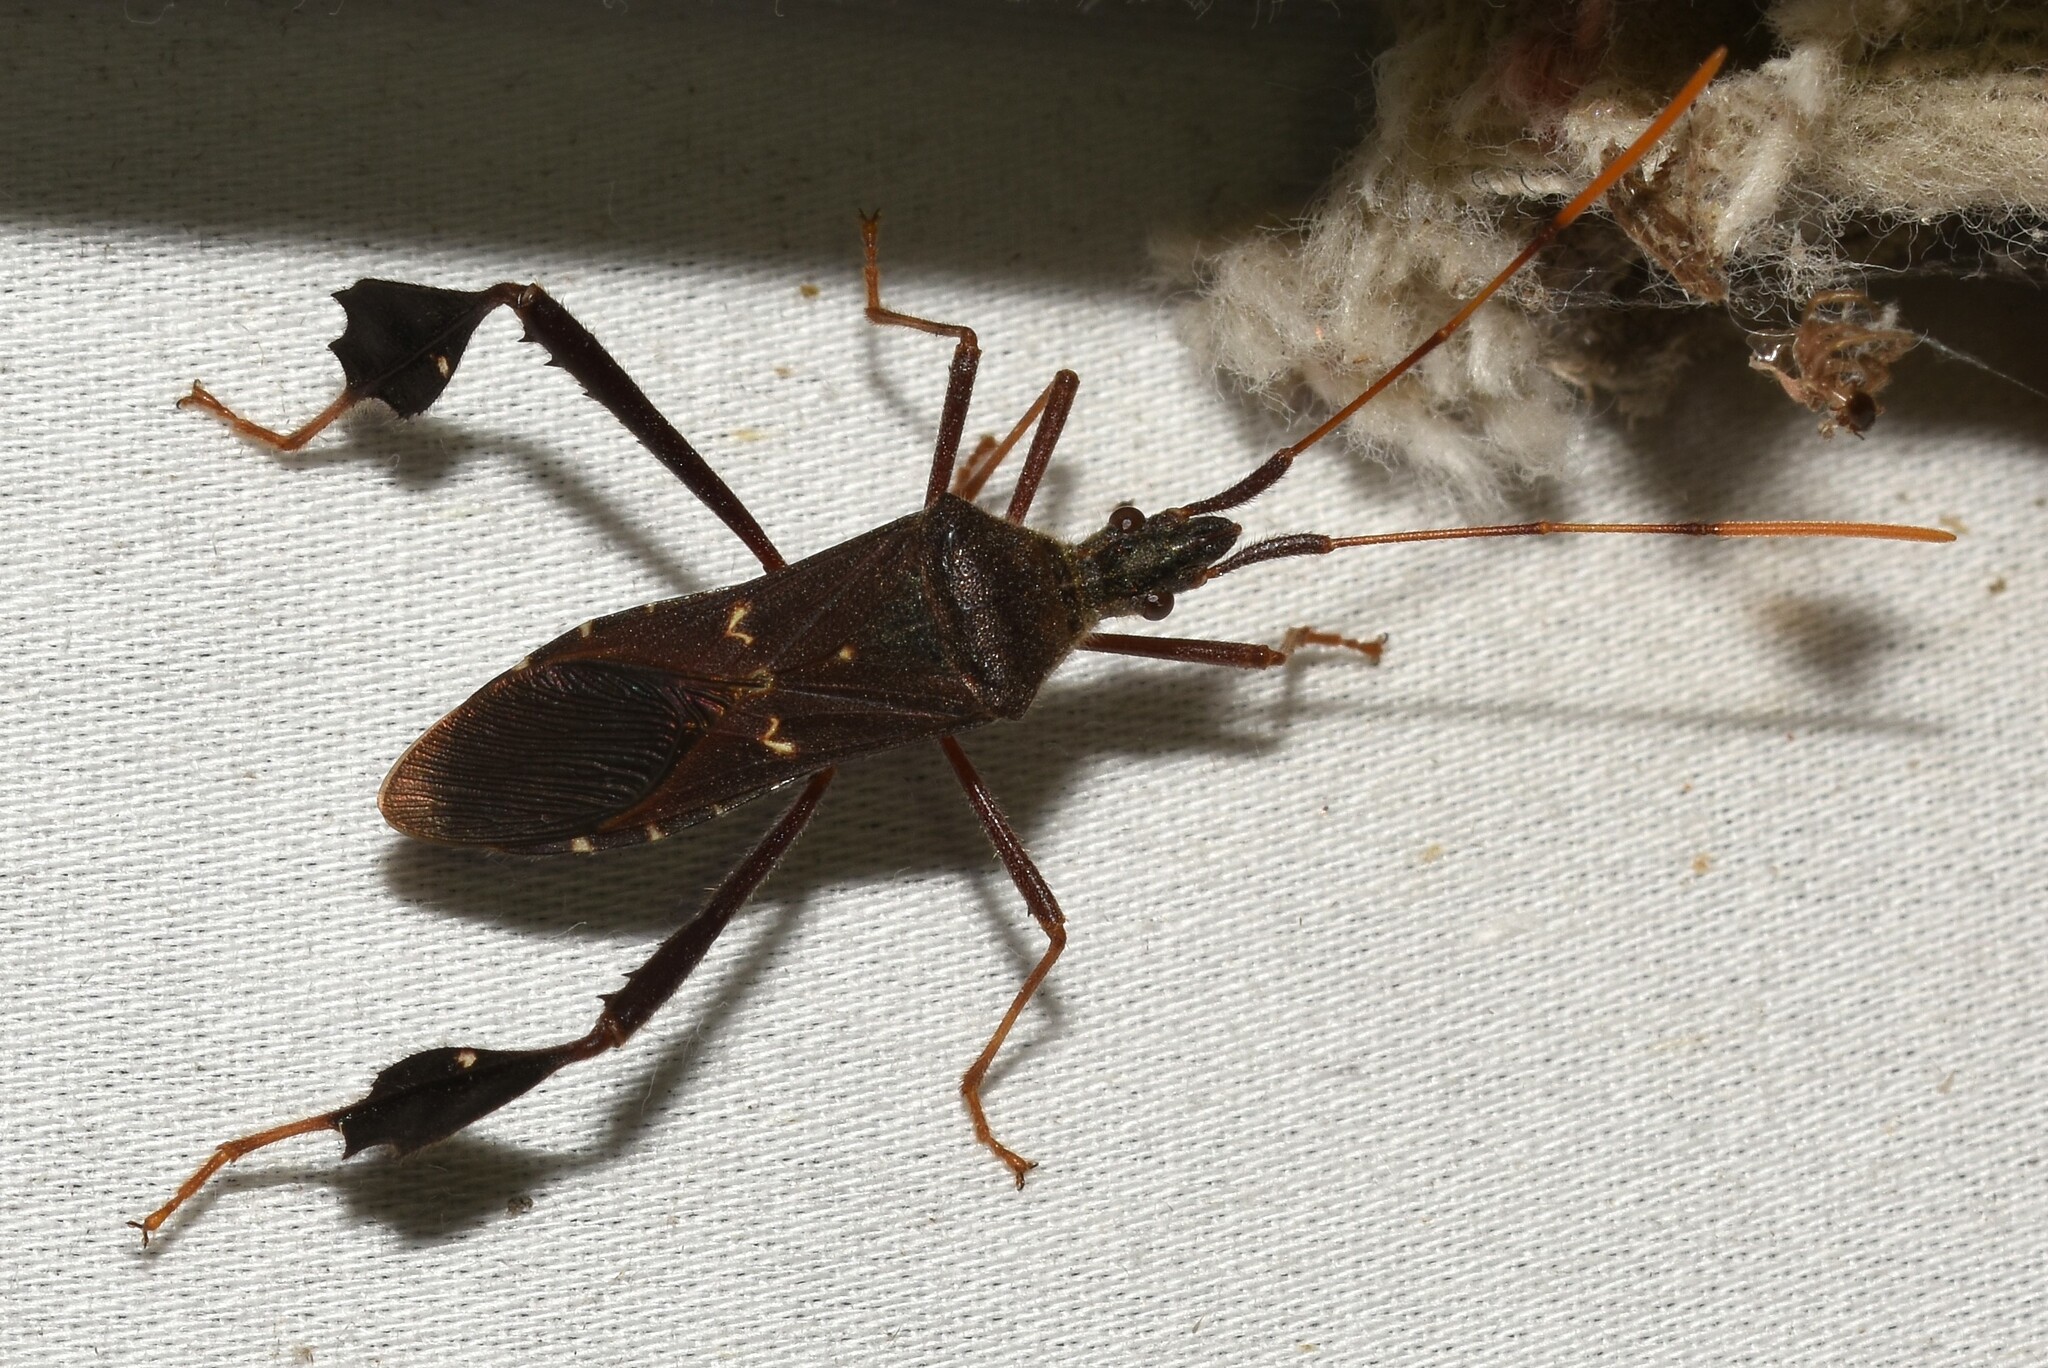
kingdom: Animalia
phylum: Arthropoda
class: Insecta
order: Hemiptera
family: Coreidae
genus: Leptoglossus
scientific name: Leptoglossus oppositus
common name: Northern leaf-footed bug
